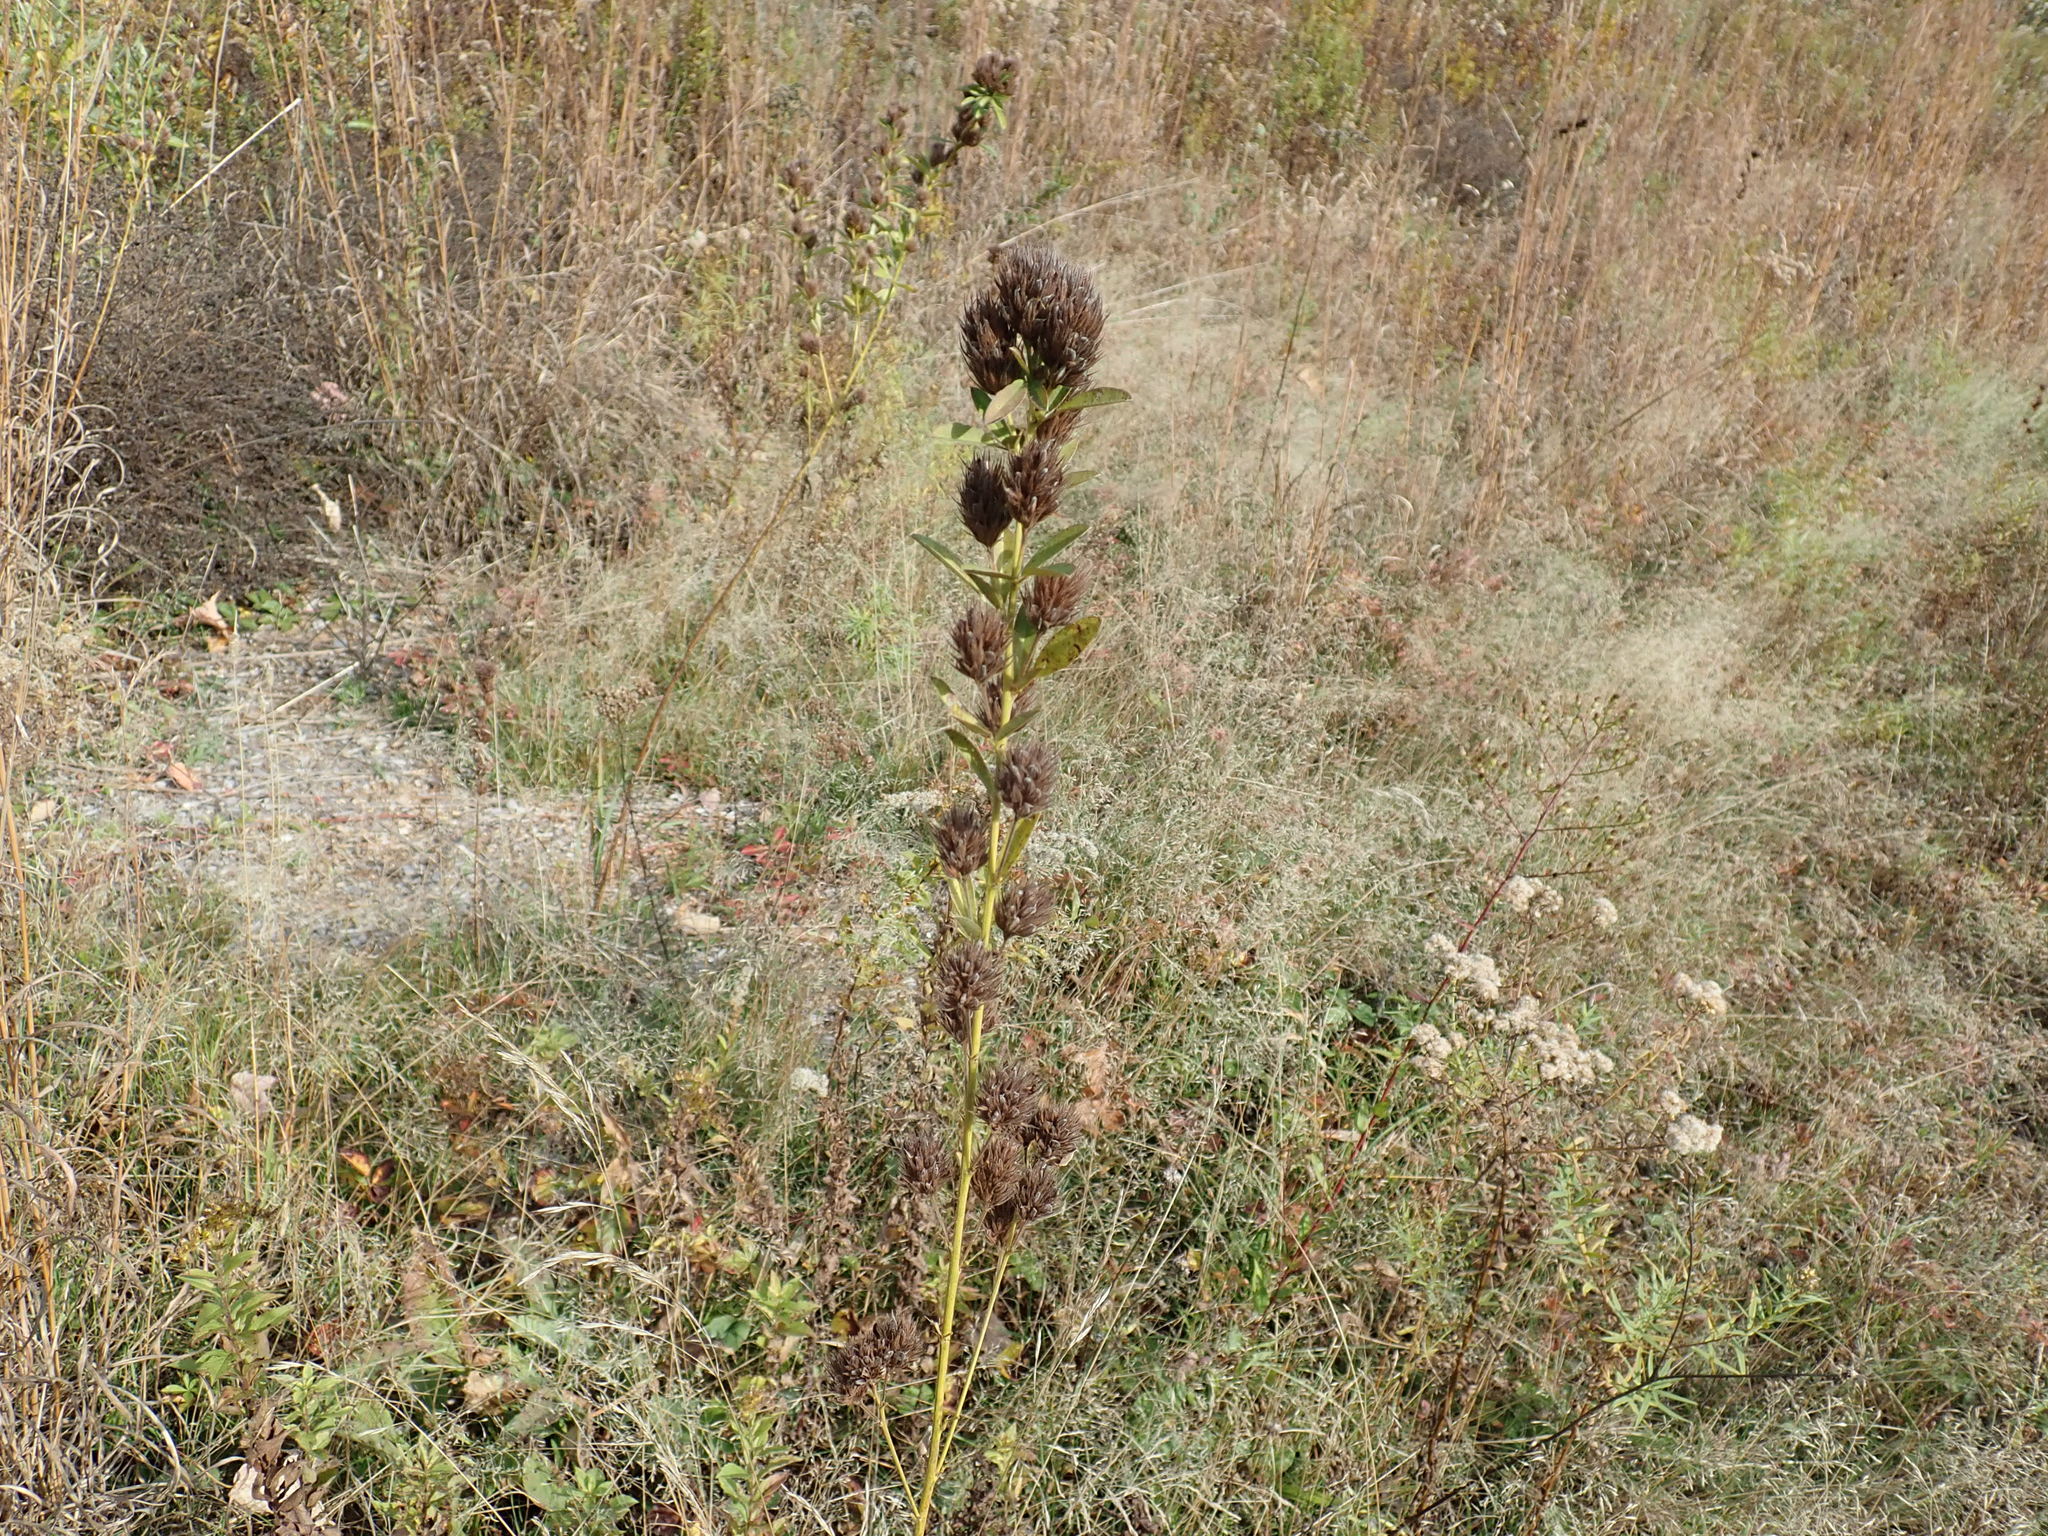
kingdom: Plantae
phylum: Tracheophyta
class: Magnoliopsida
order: Fabales
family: Fabaceae
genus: Lespedeza
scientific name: Lespedeza capitata
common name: Dusty clover
